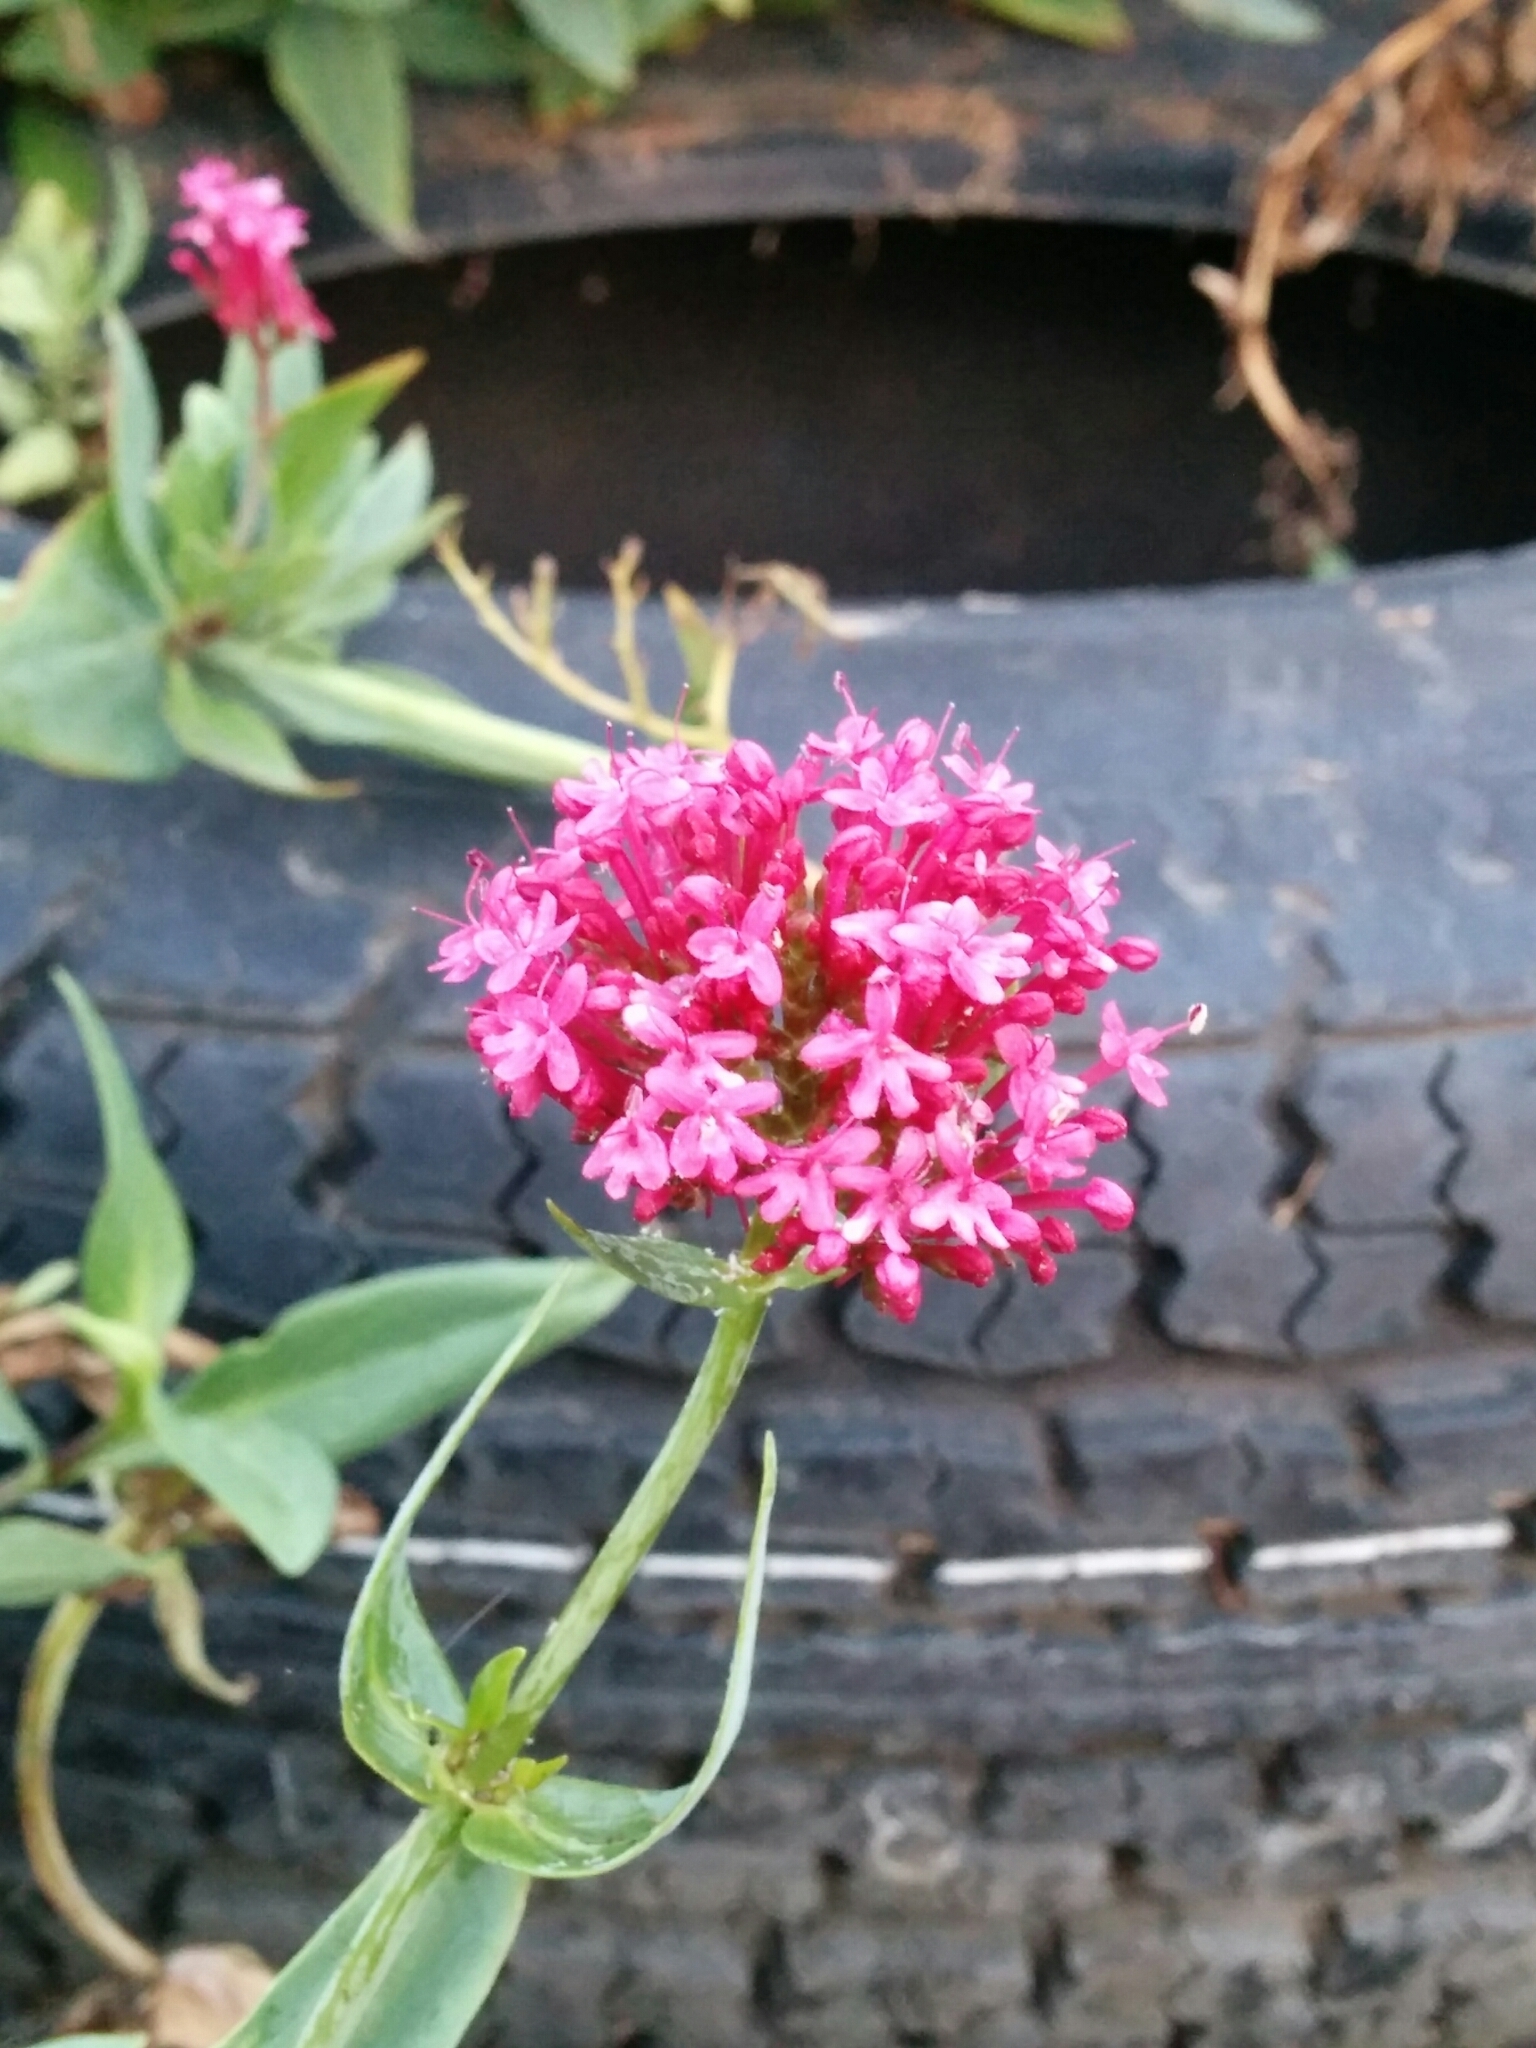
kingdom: Plantae
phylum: Tracheophyta
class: Magnoliopsida
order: Dipsacales
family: Caprifoliaceae
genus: Centranthus
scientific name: Centranthus ruber
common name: Red valerian
